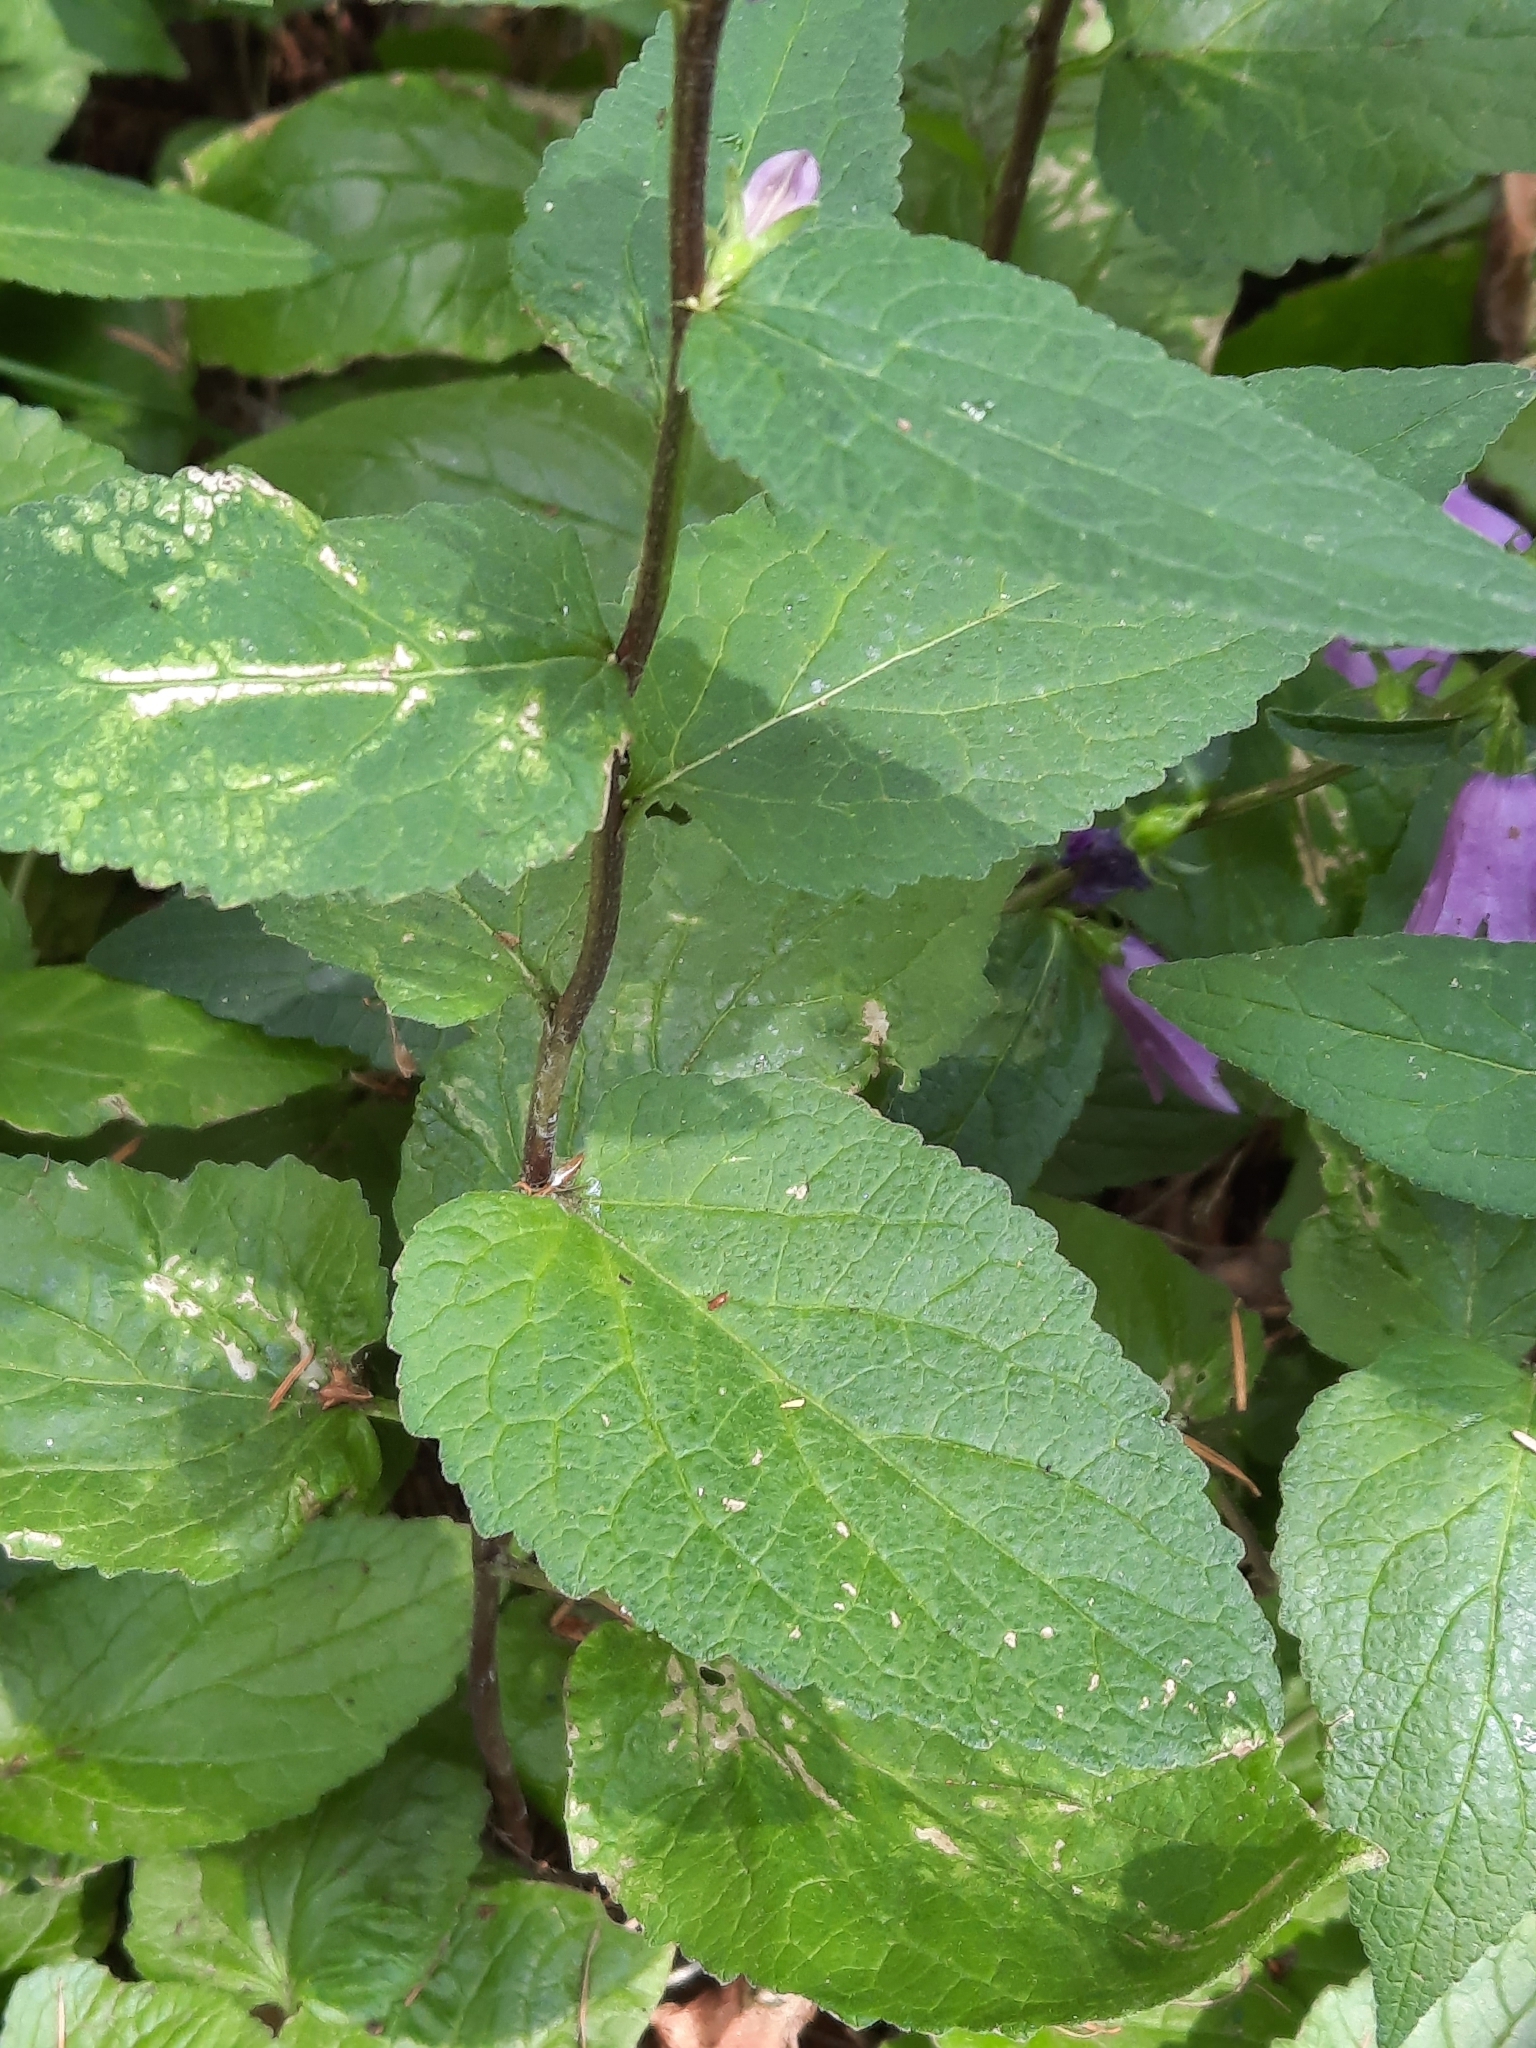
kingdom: Plantae
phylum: Tracheophyta
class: Magnoliopsida
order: Asterales
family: Campanulaceae
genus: Campanula
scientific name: Campanula rapunculoides
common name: Creeping bellflower
